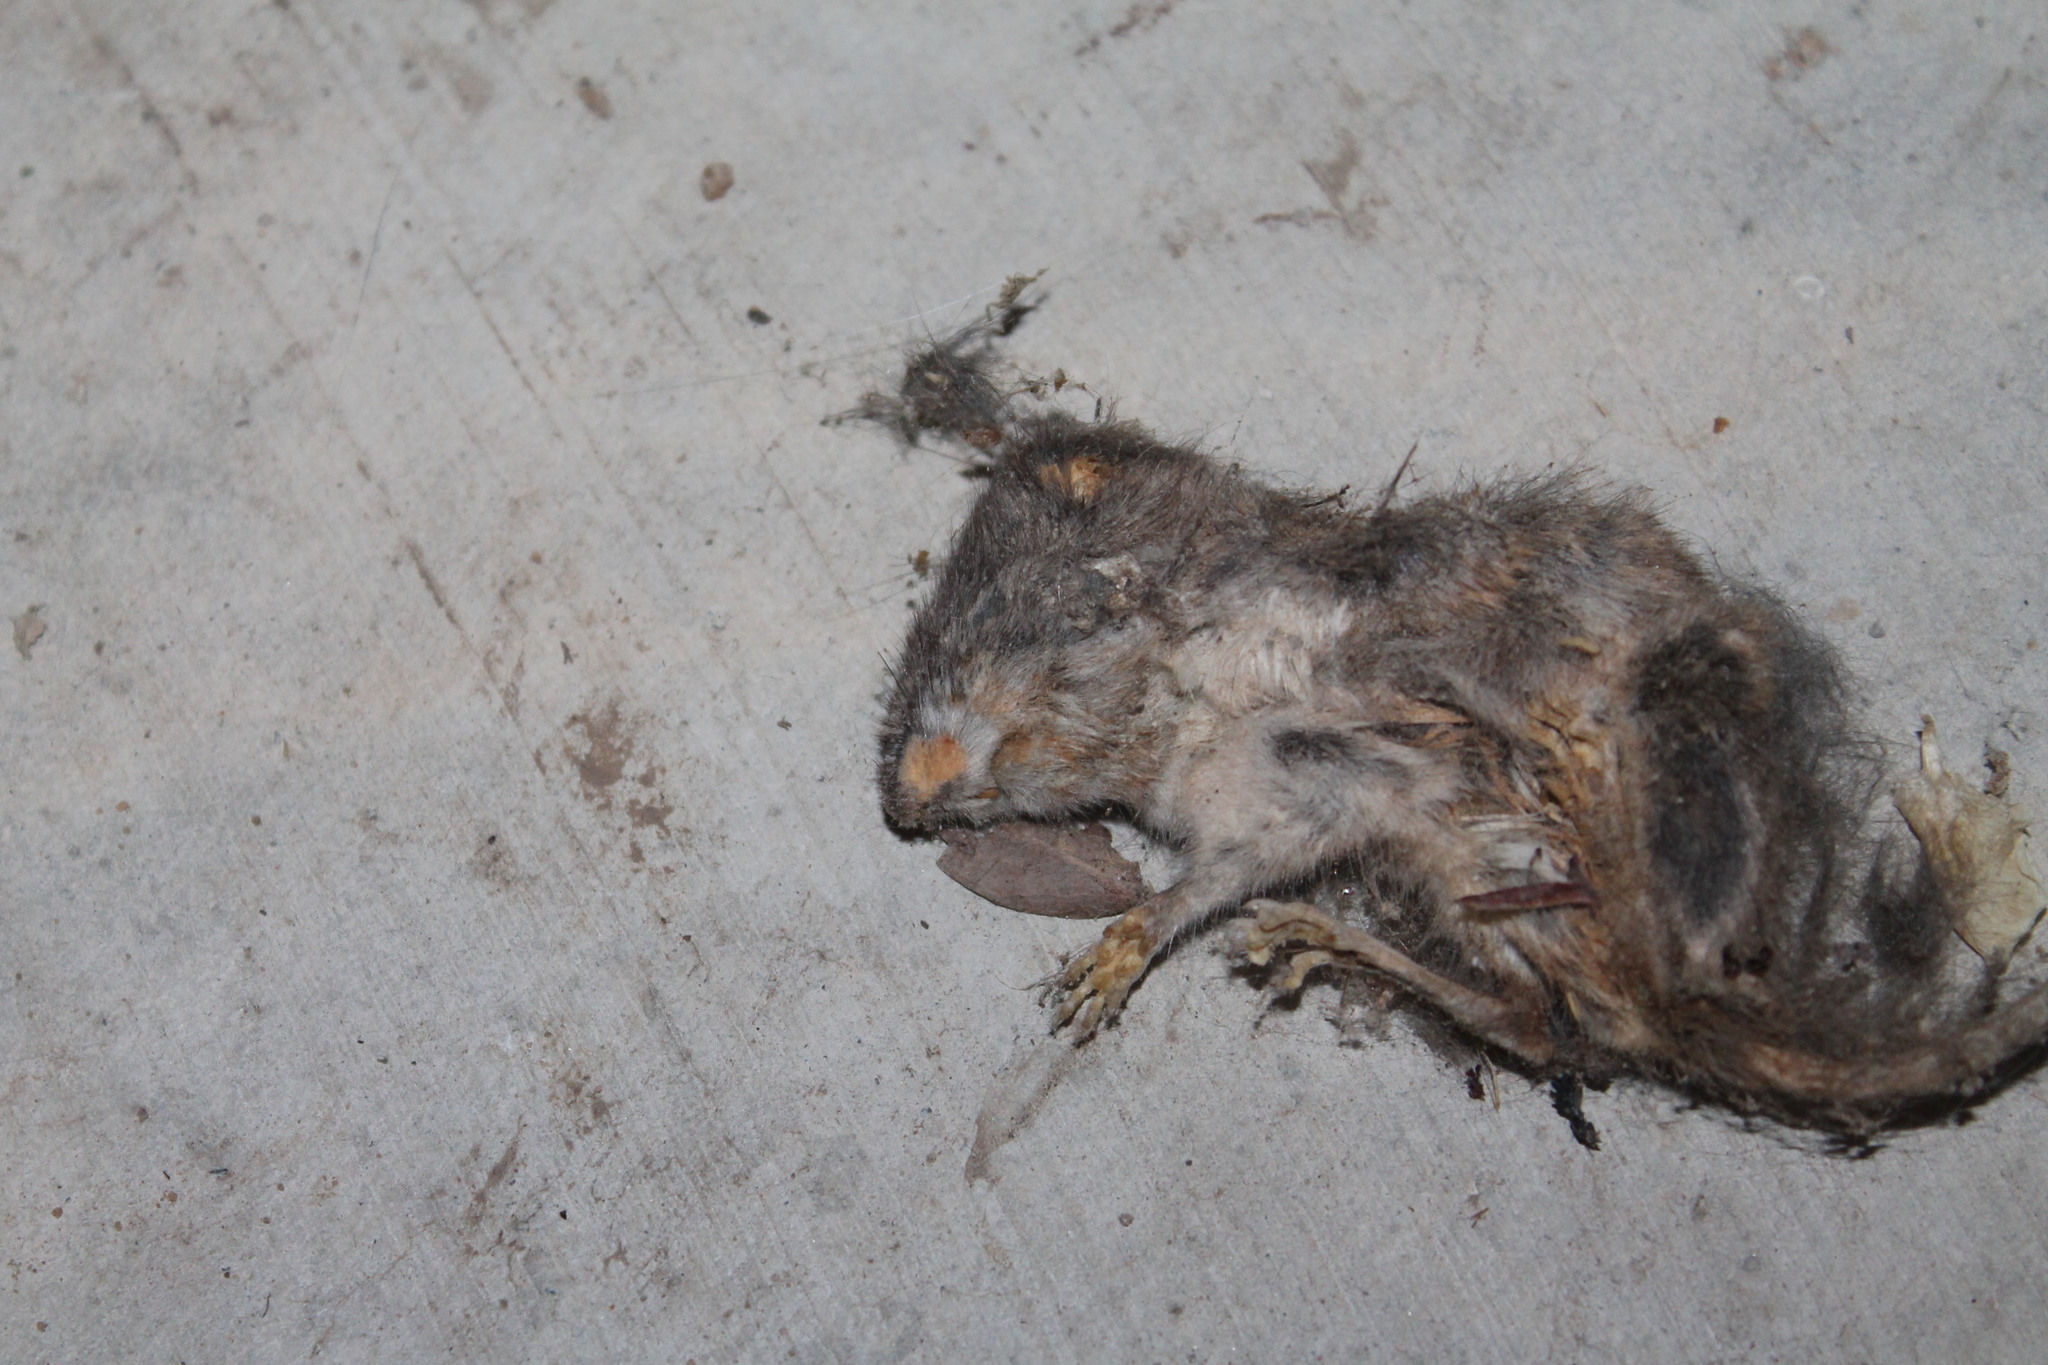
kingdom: Animalia
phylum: Chordata
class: Mammalia
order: Rodentia
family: Cricetidae
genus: Peromyscus
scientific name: Peromyscus leucopus
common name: White-footed deermouse
